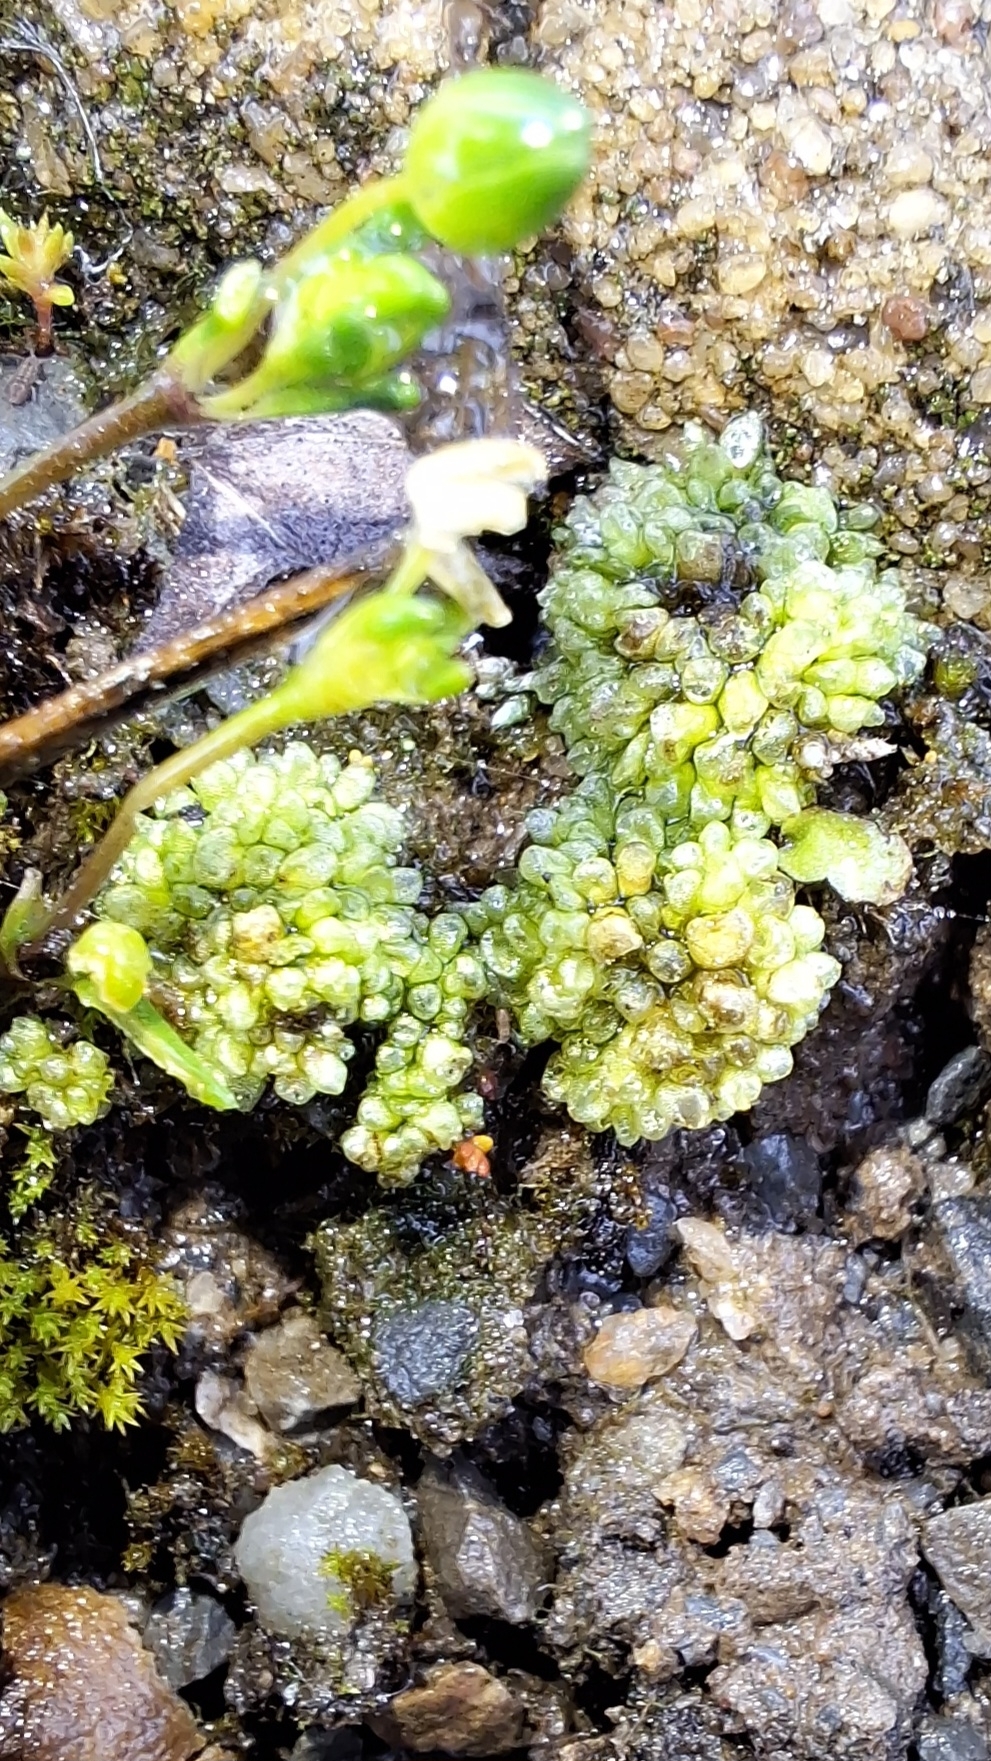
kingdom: Plantae
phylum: Marchantiophyta
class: Marchantiopsida
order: Sphaerocarpales
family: Sphaerocarpaceae
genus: Sphaerocarpos
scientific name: Sphaerocarpos texanus
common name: Texas balloonwort
